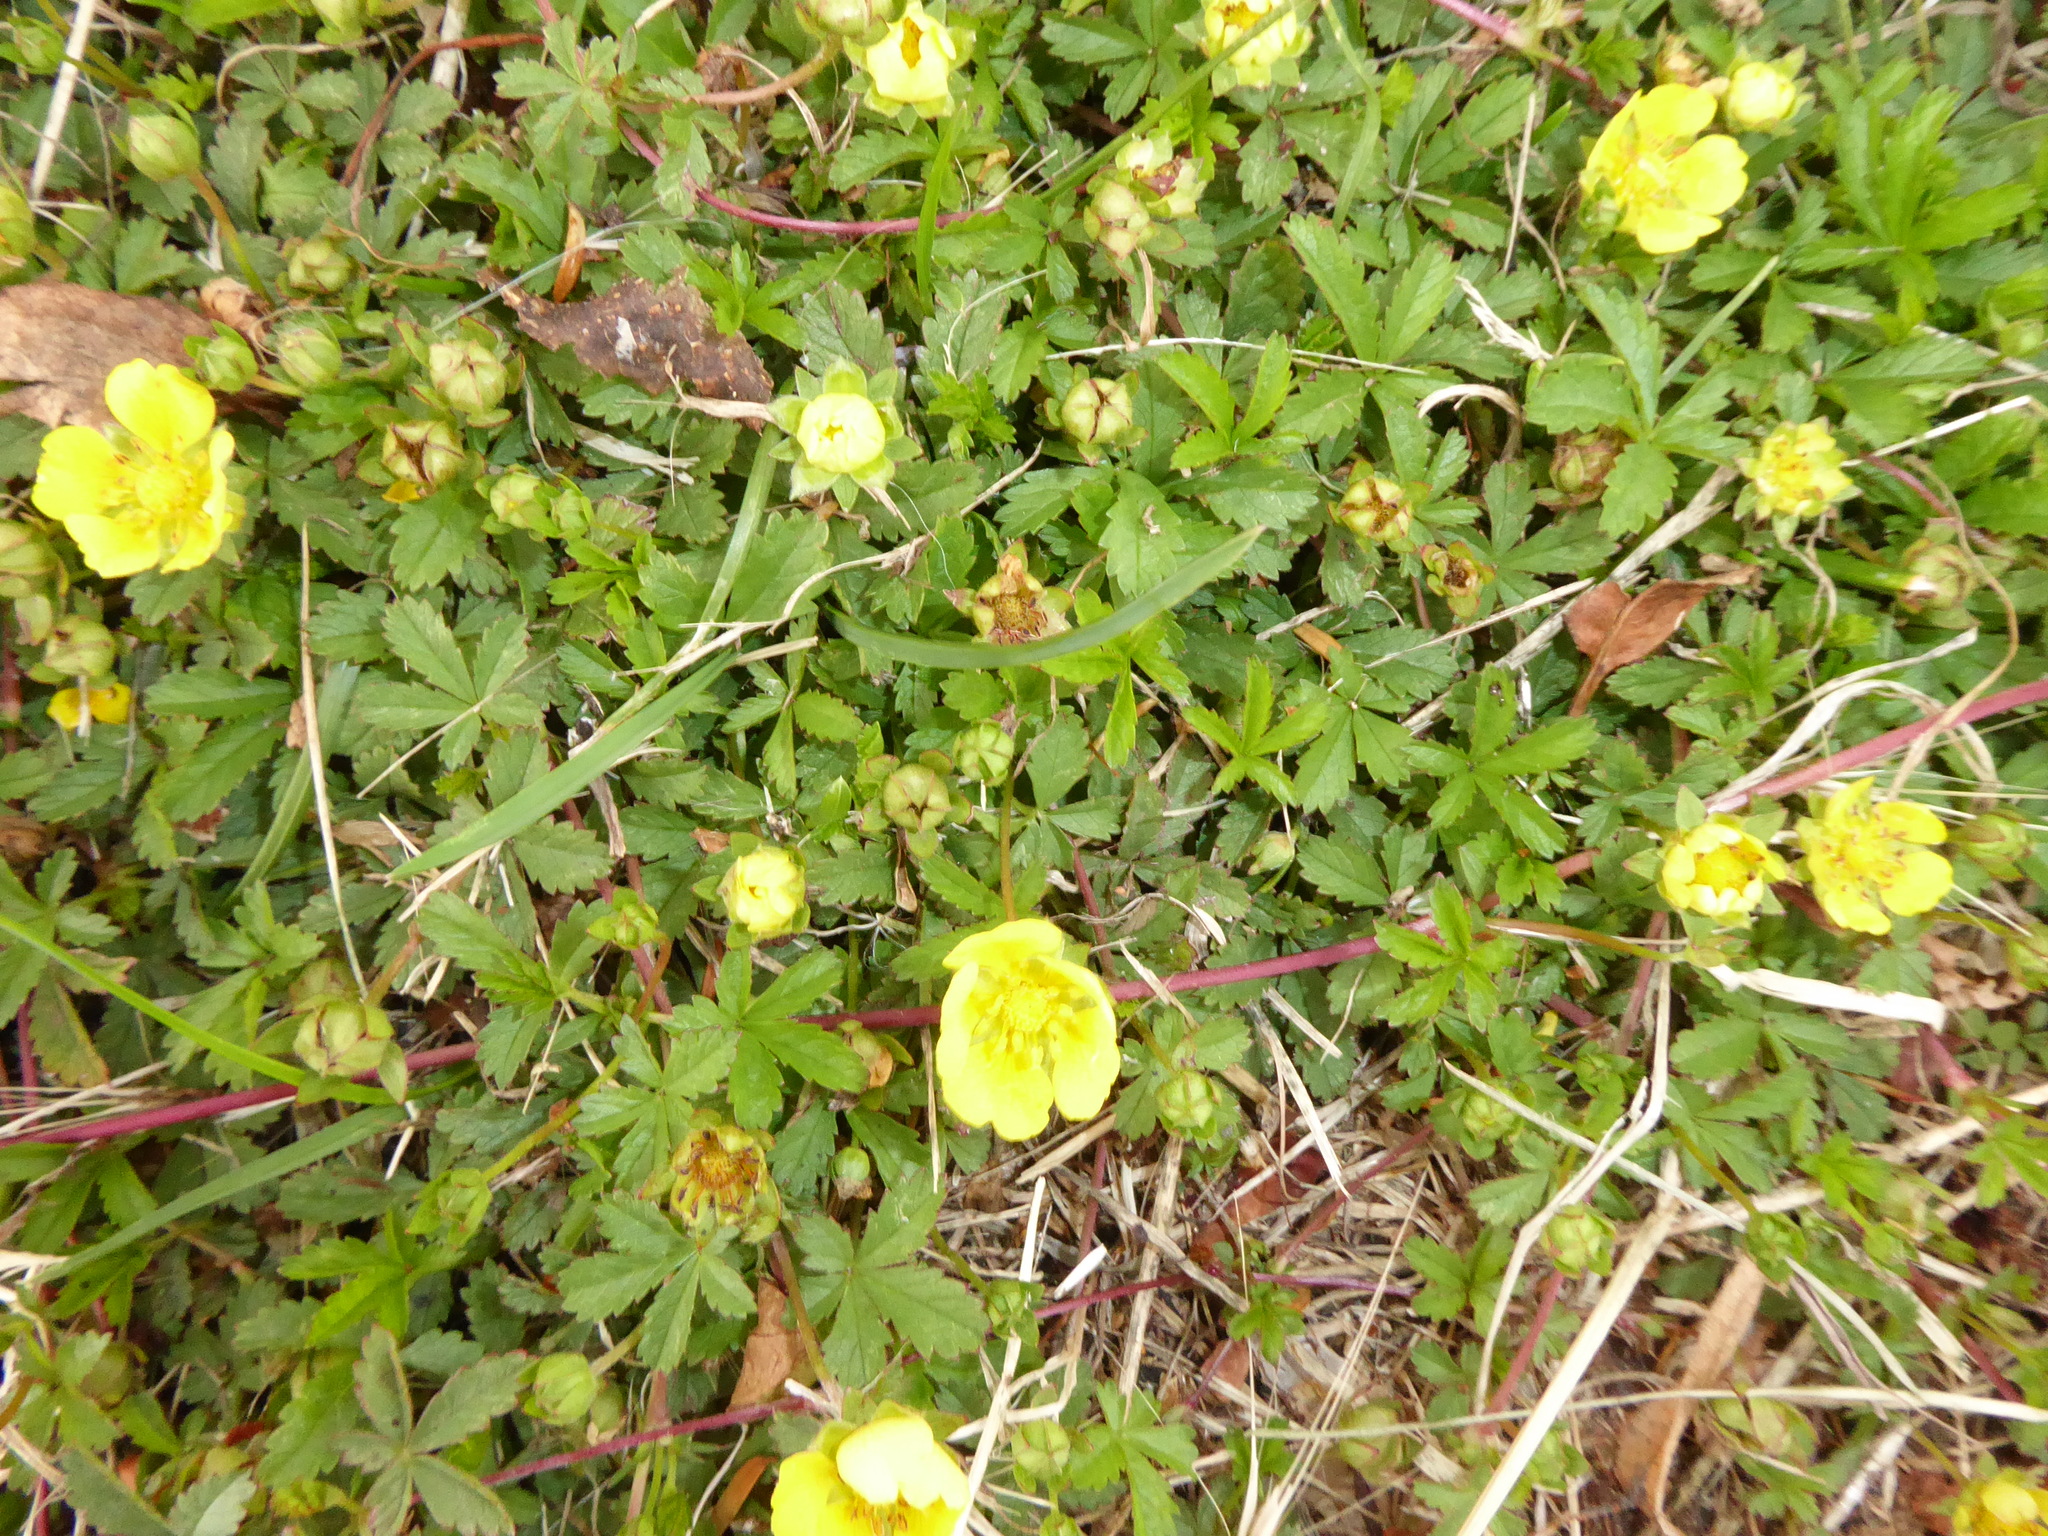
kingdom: Plantae
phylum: Tracheophyta
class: Magnoliopsida
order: Rosales
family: Rosaceae
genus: Potentilla
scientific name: Potentilla reptans
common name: Creeping cinquefoil
